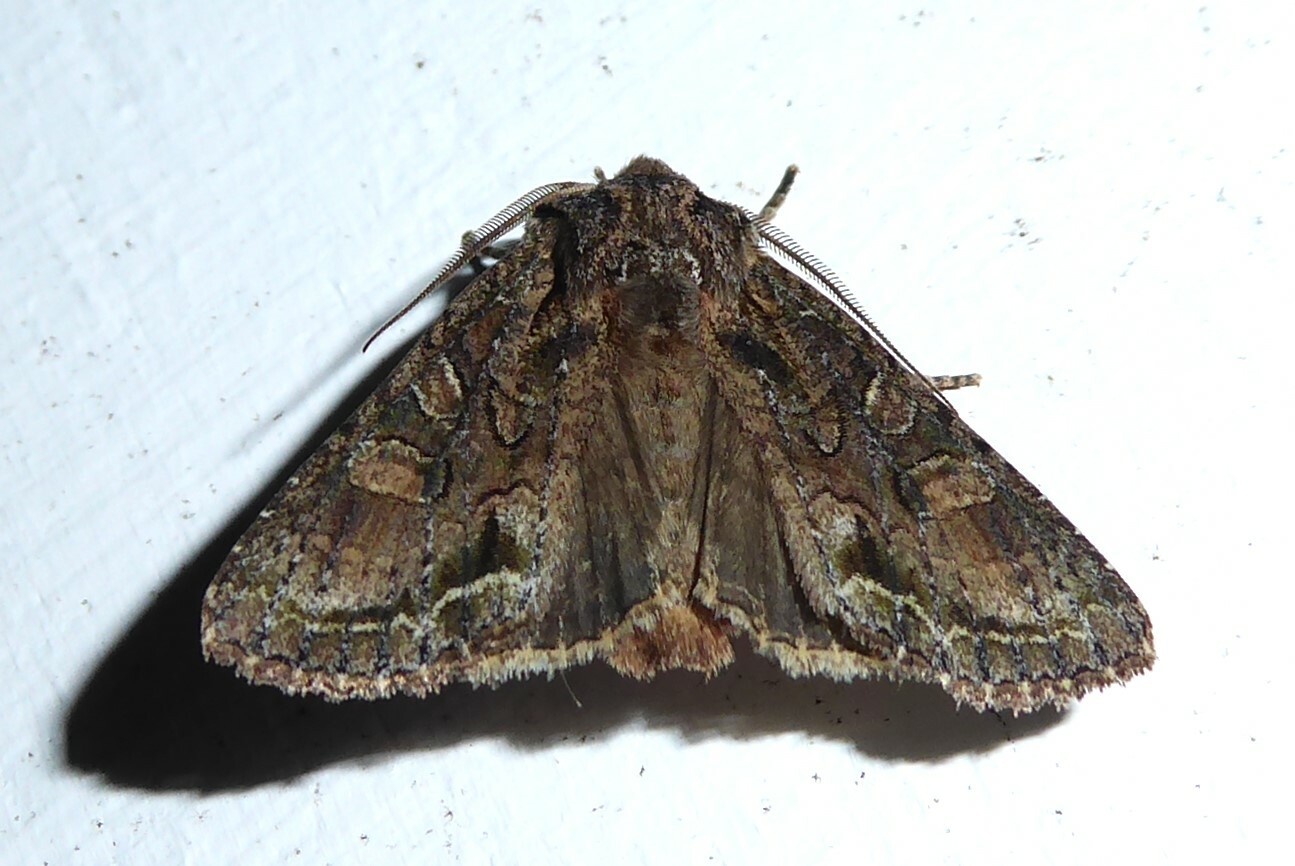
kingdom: Animalia
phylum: Arthropoda
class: Insecta
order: Lepidoptera
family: Noctuidae
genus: Ichneutica
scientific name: Ichneutica mutans
